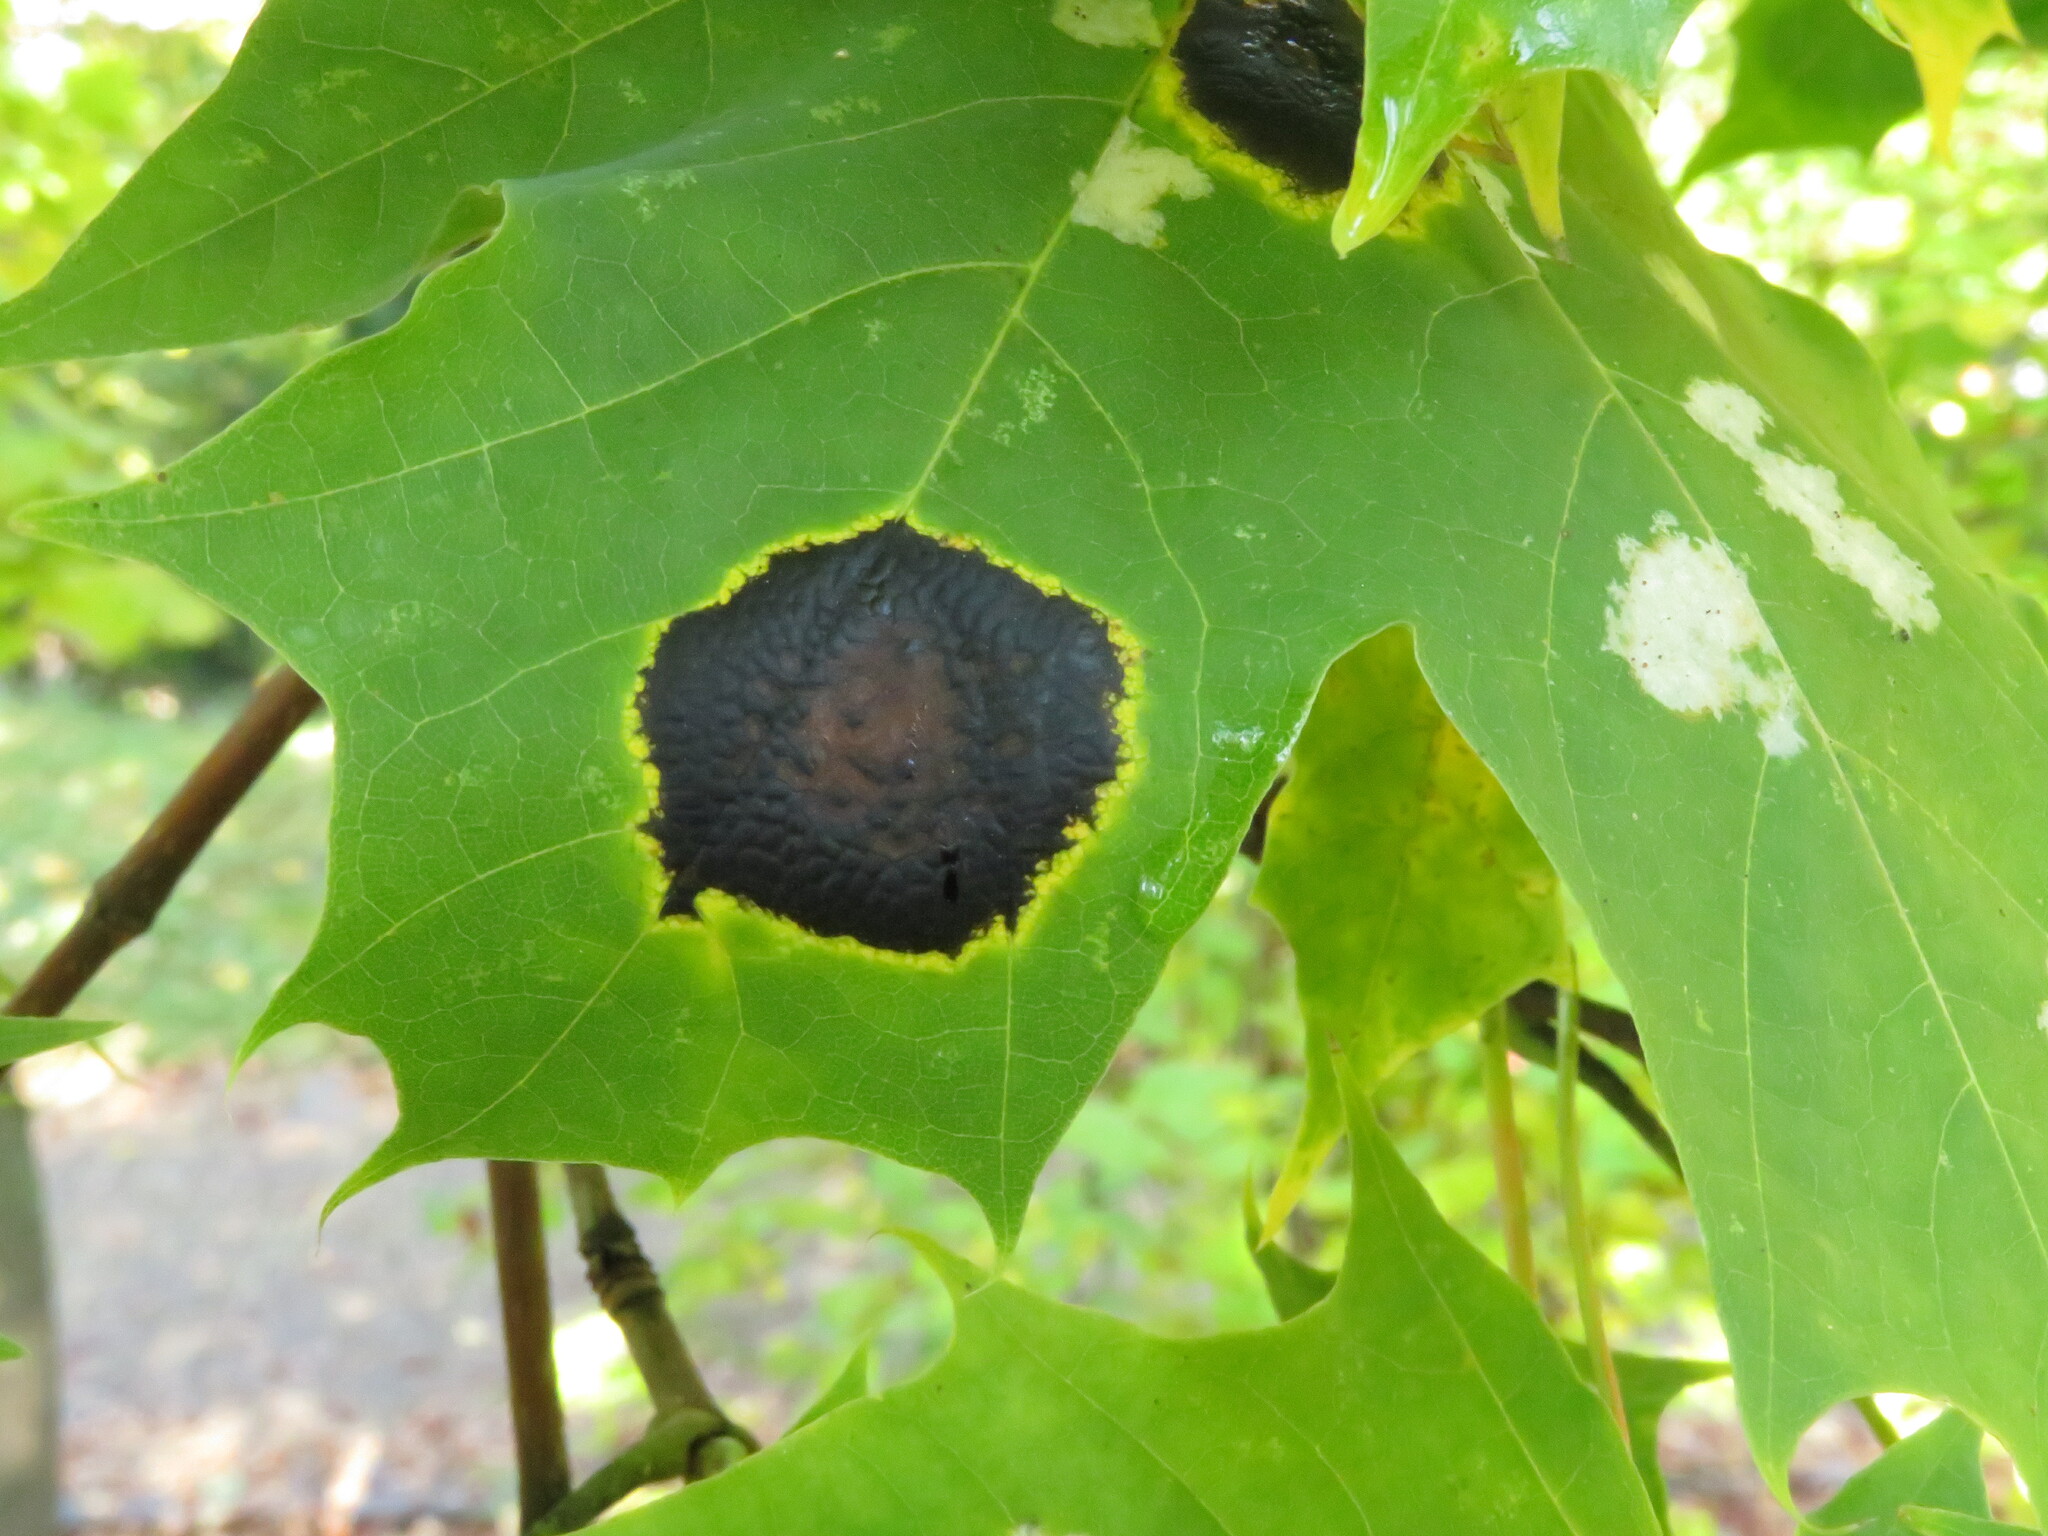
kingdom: Fungi
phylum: Ascomycota
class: Leotiomycetes
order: Rhytismatales
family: Rhytismataceae
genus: Rhytisma
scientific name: Rhytisma acerinum
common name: European tar spot
